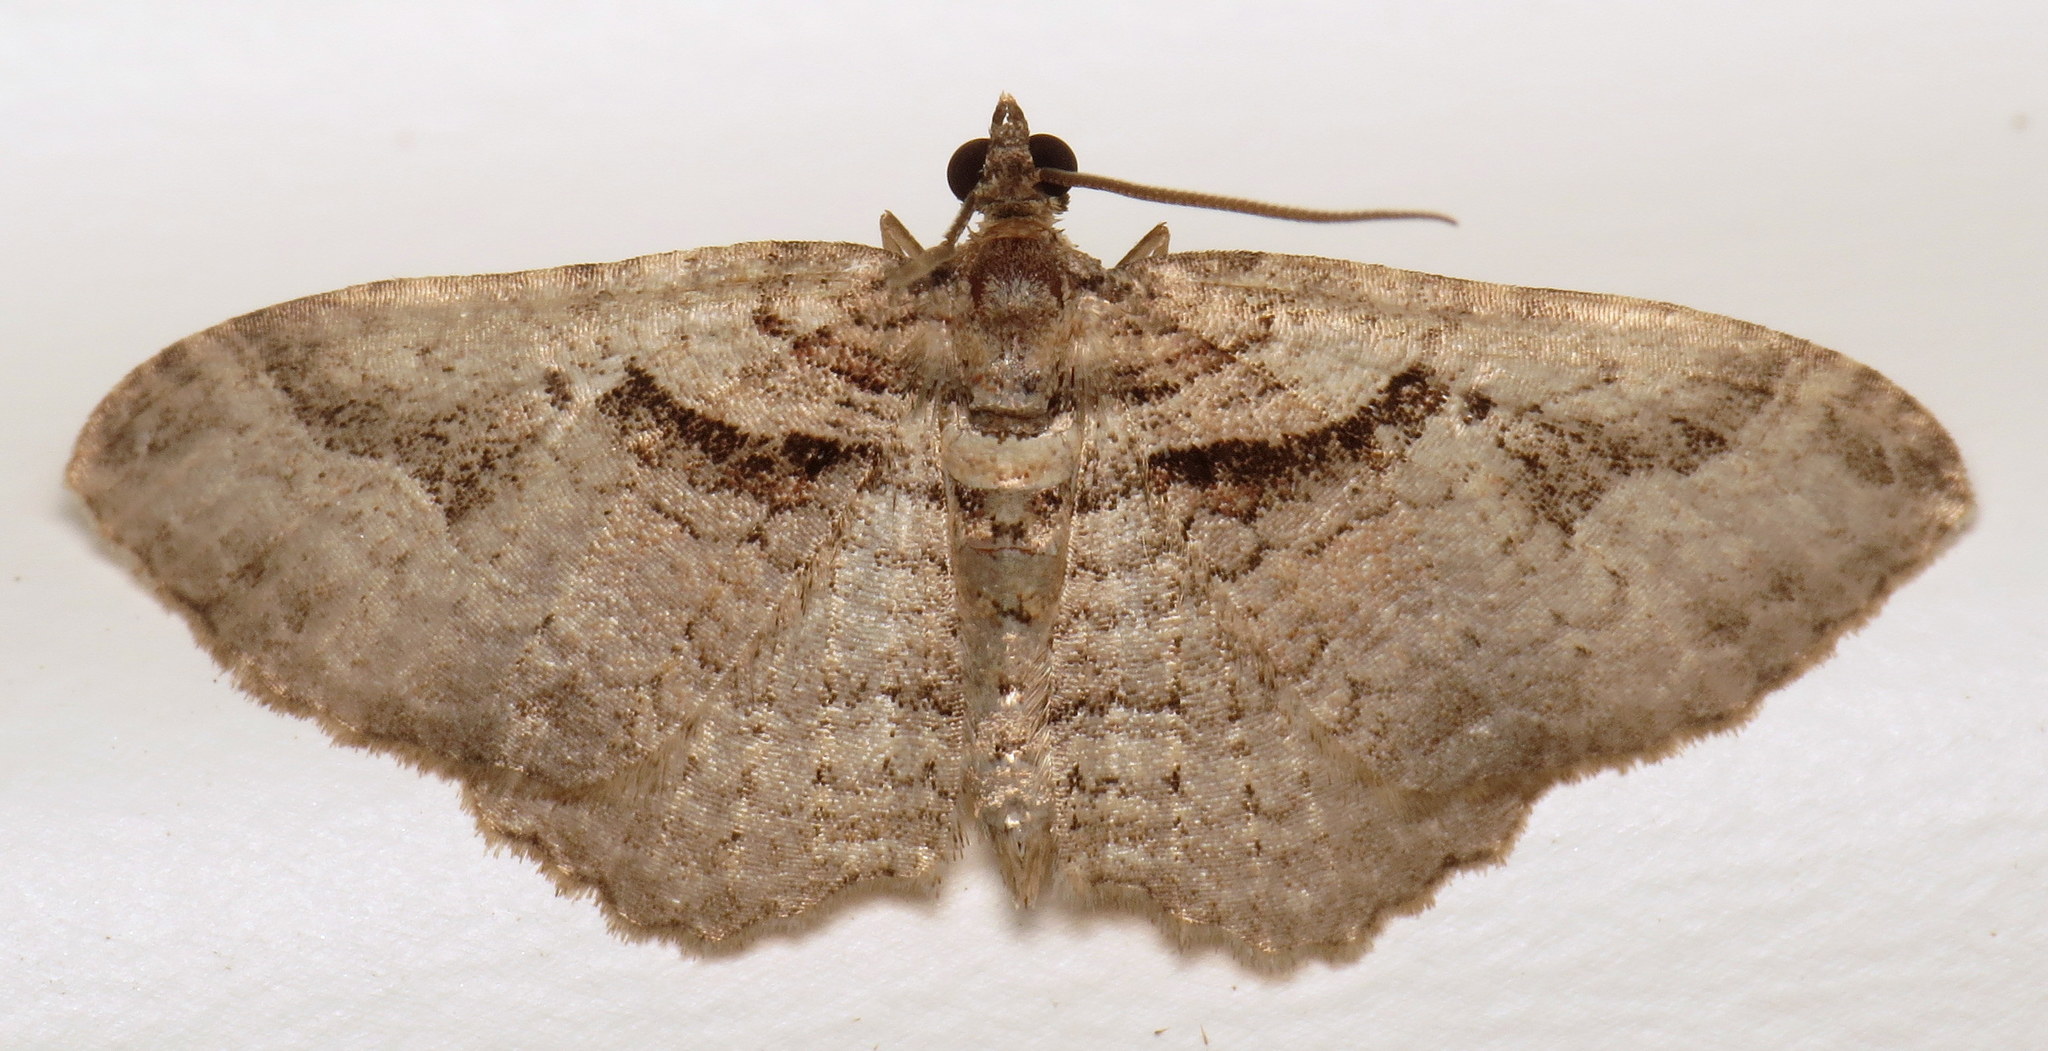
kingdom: Animalia
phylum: Arthropoda
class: Insecta
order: Lepidoptera
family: Geometridae
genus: Costaconvexa
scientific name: Costaconvexa centrostrigaria
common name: Bent-line carpet
